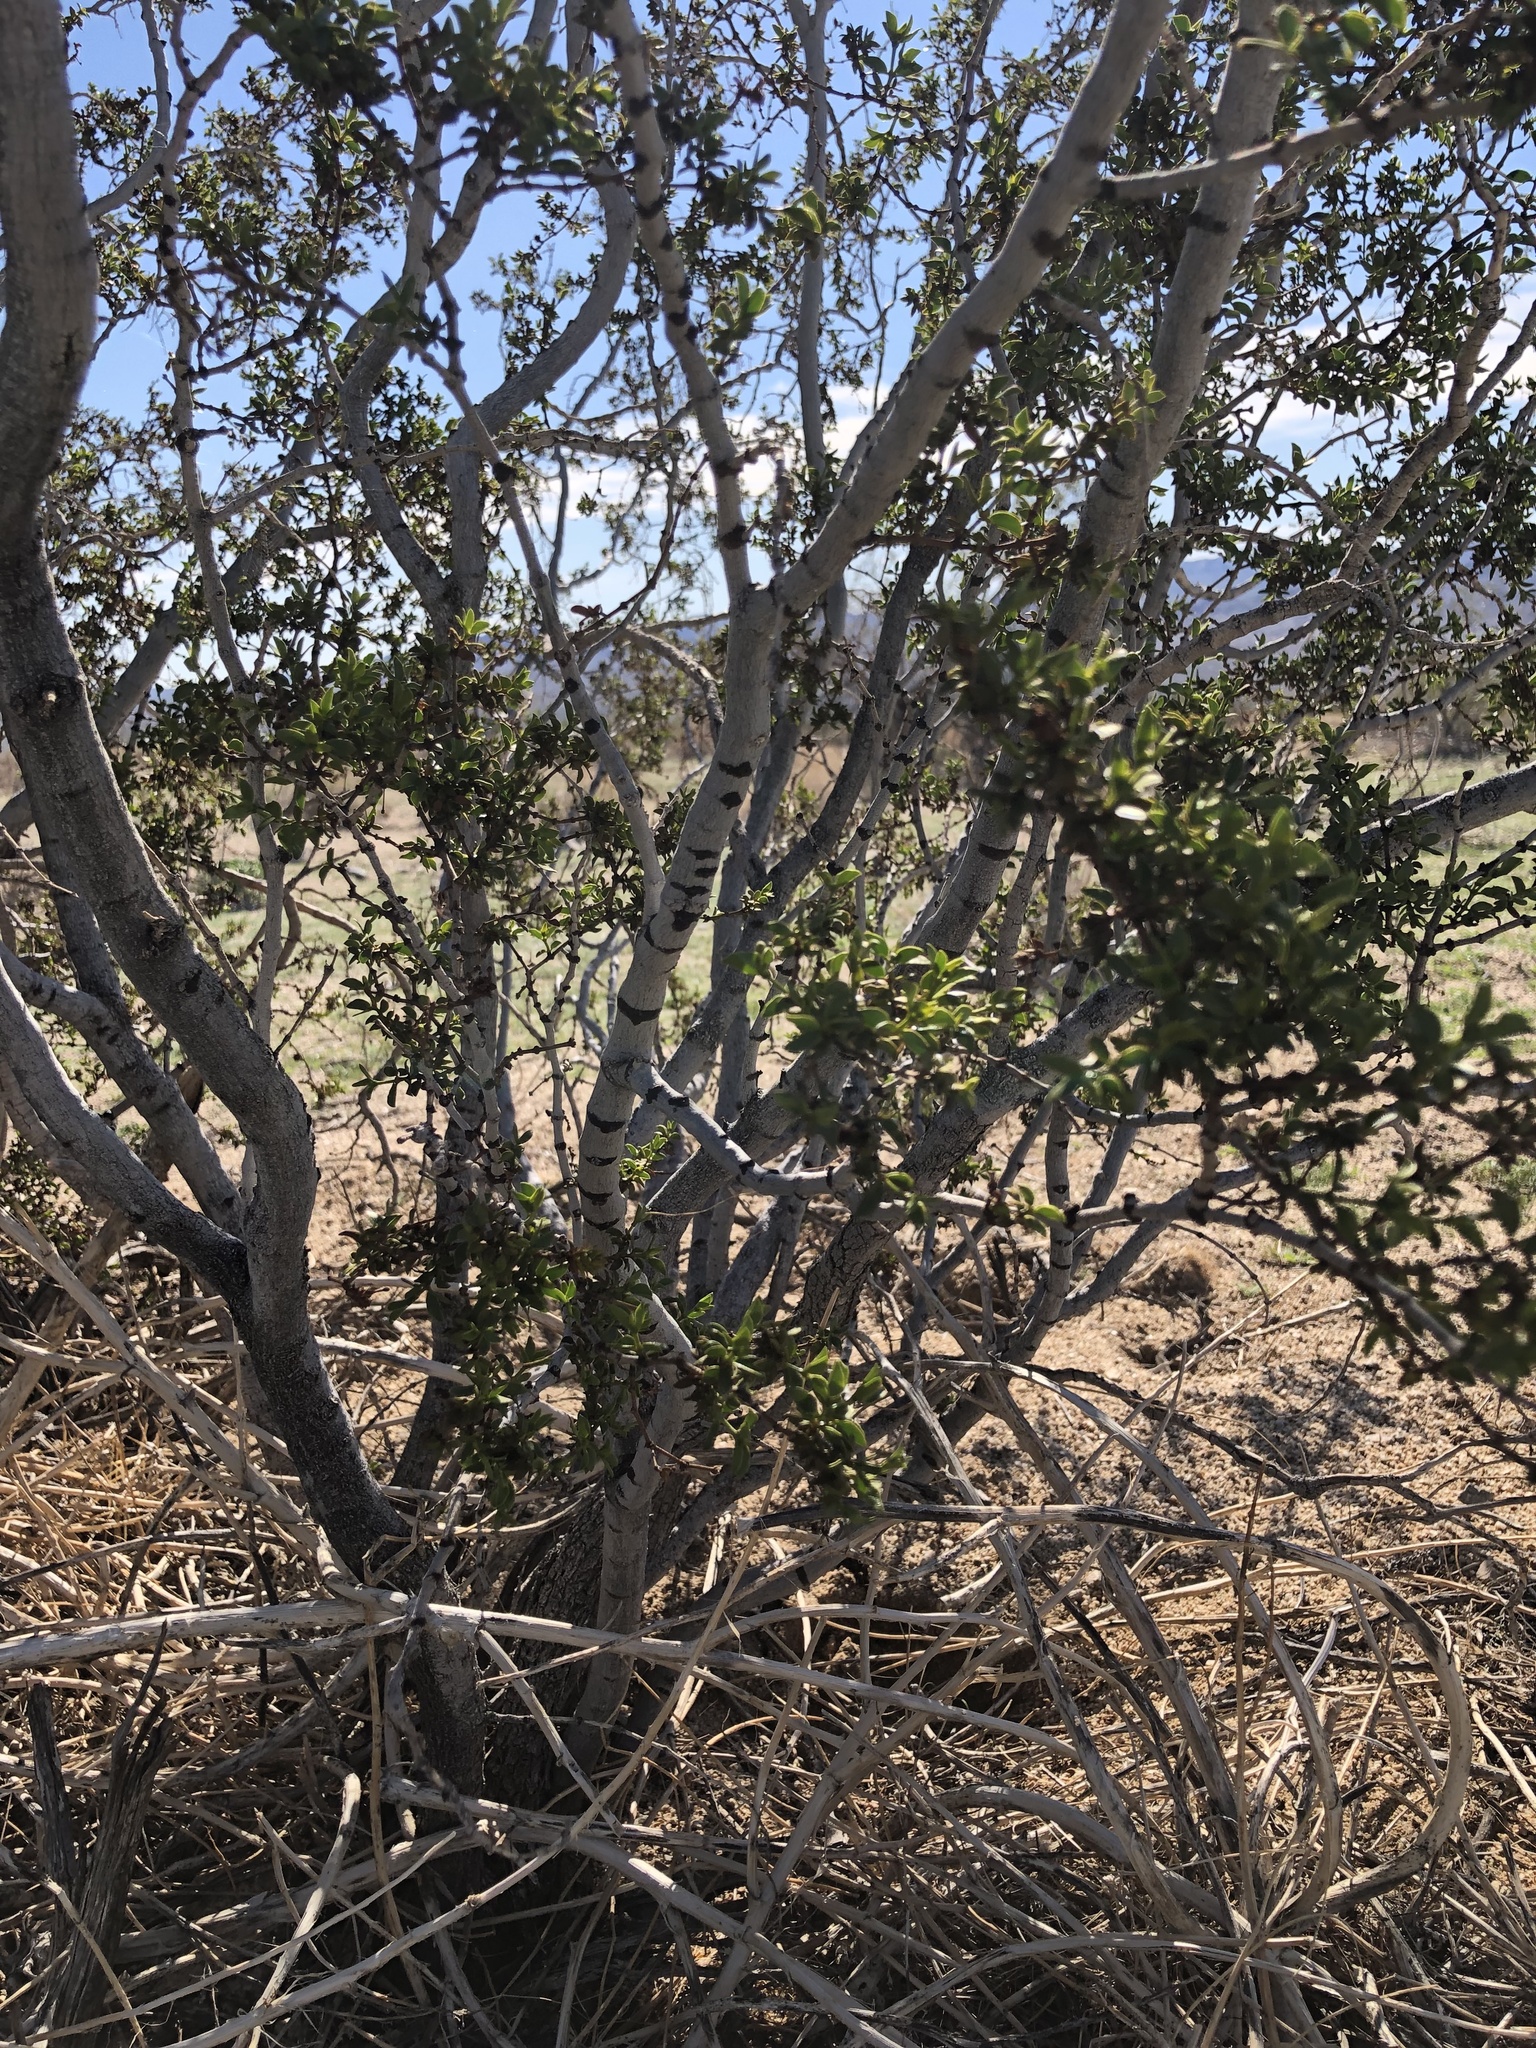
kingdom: Plantae
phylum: Tracheophyta
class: Magnoliopsida
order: Zygophyllales
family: Zygophyllaceae
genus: Larrea
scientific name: Larrea tridentata
